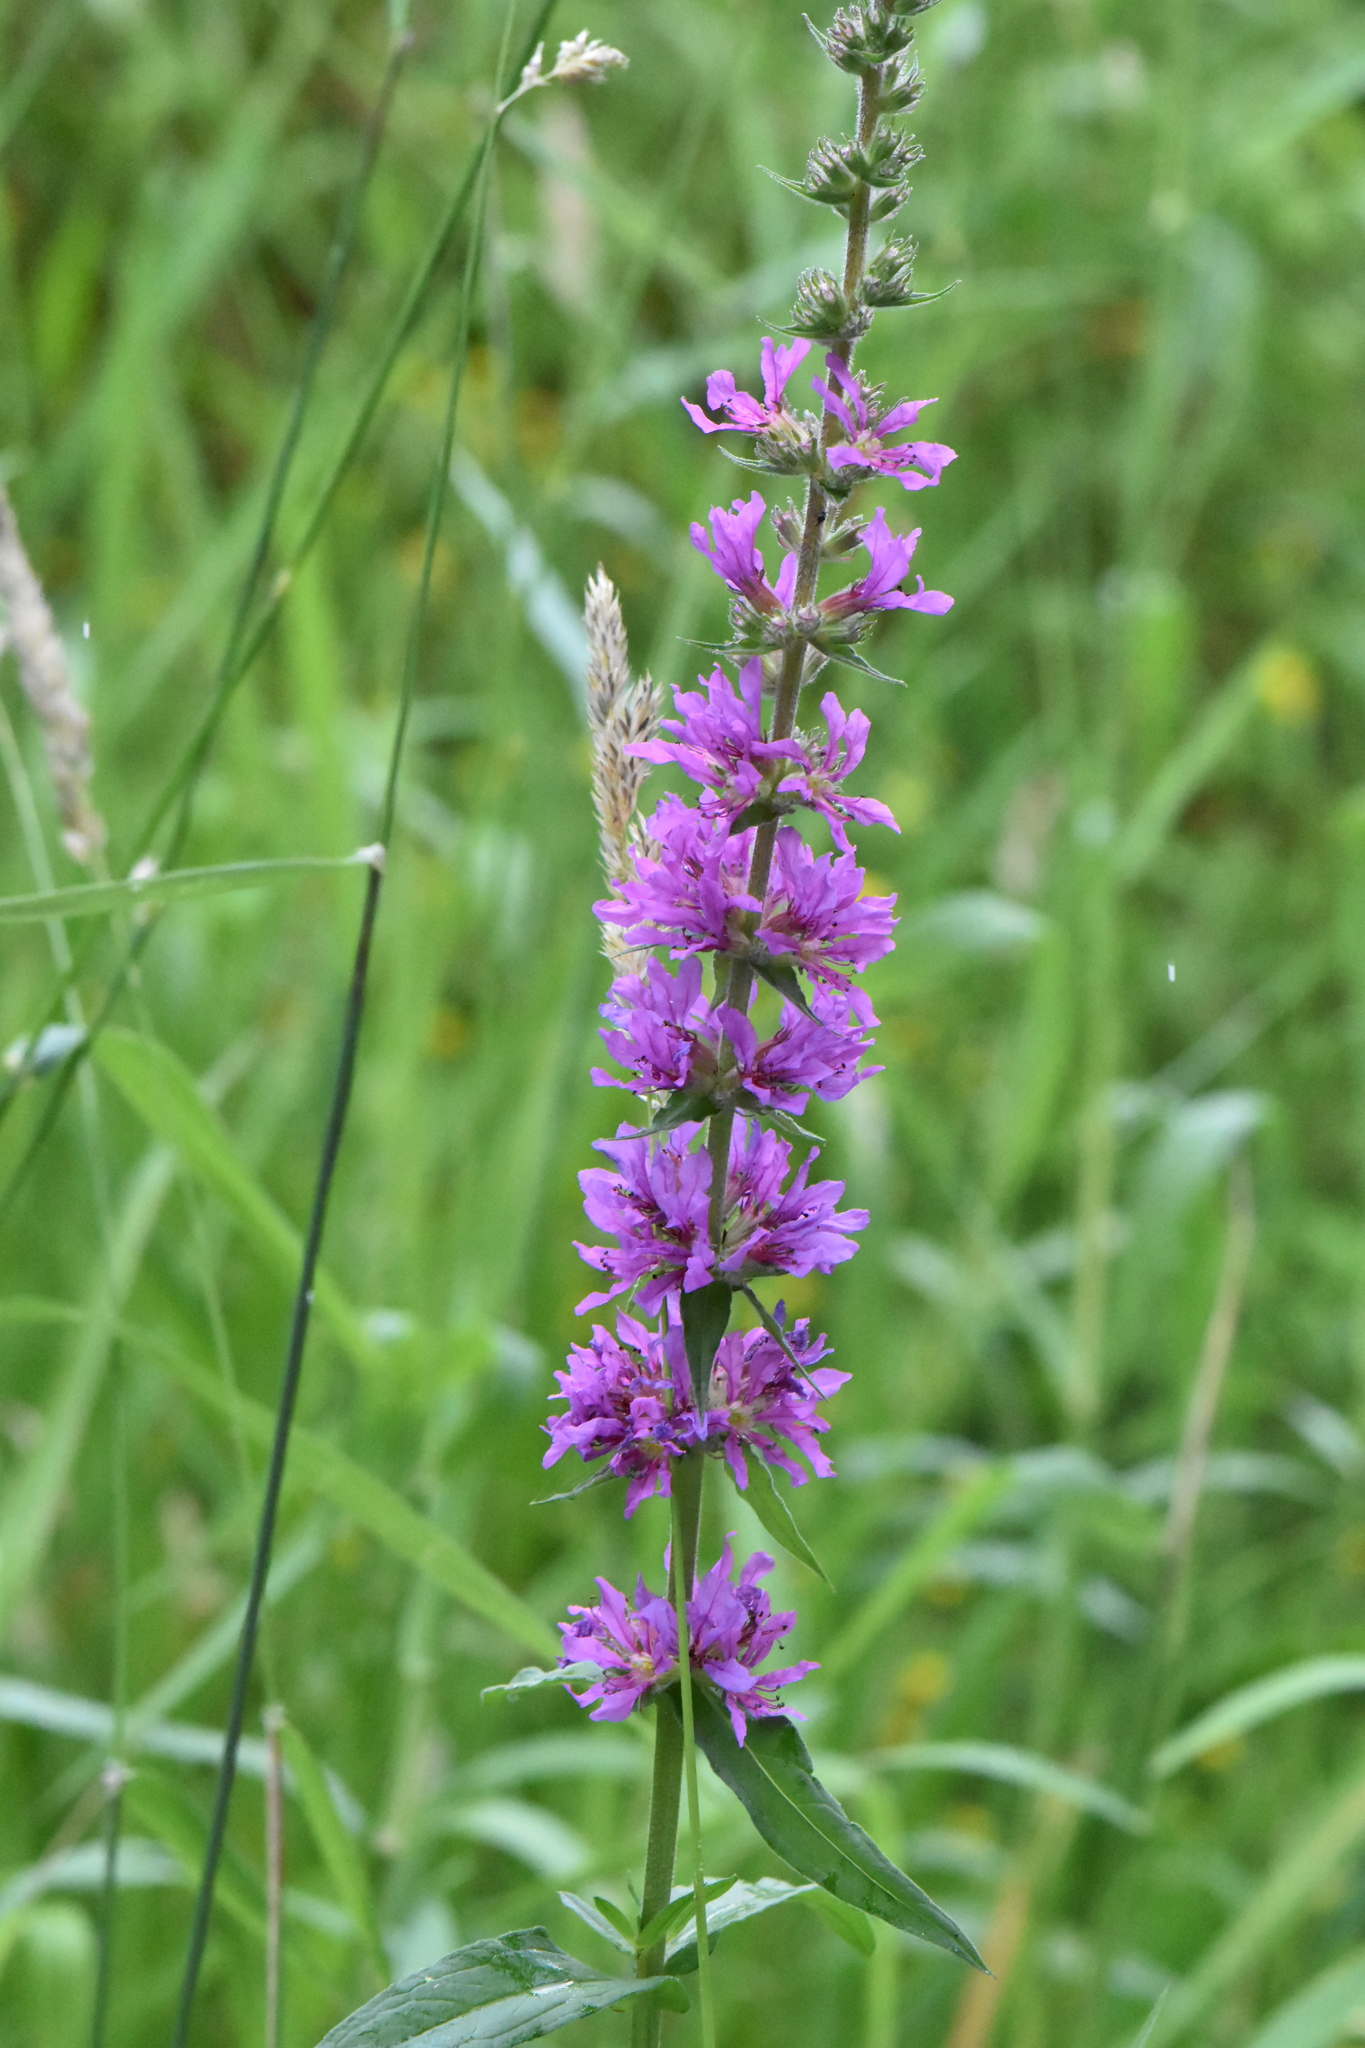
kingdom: Plantae
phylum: Tracheophyta
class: Magnoliopsida
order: Myrtales
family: Lythraceae
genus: Lythrum
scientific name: Lythrum salicaria
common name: Purple loosestrife
